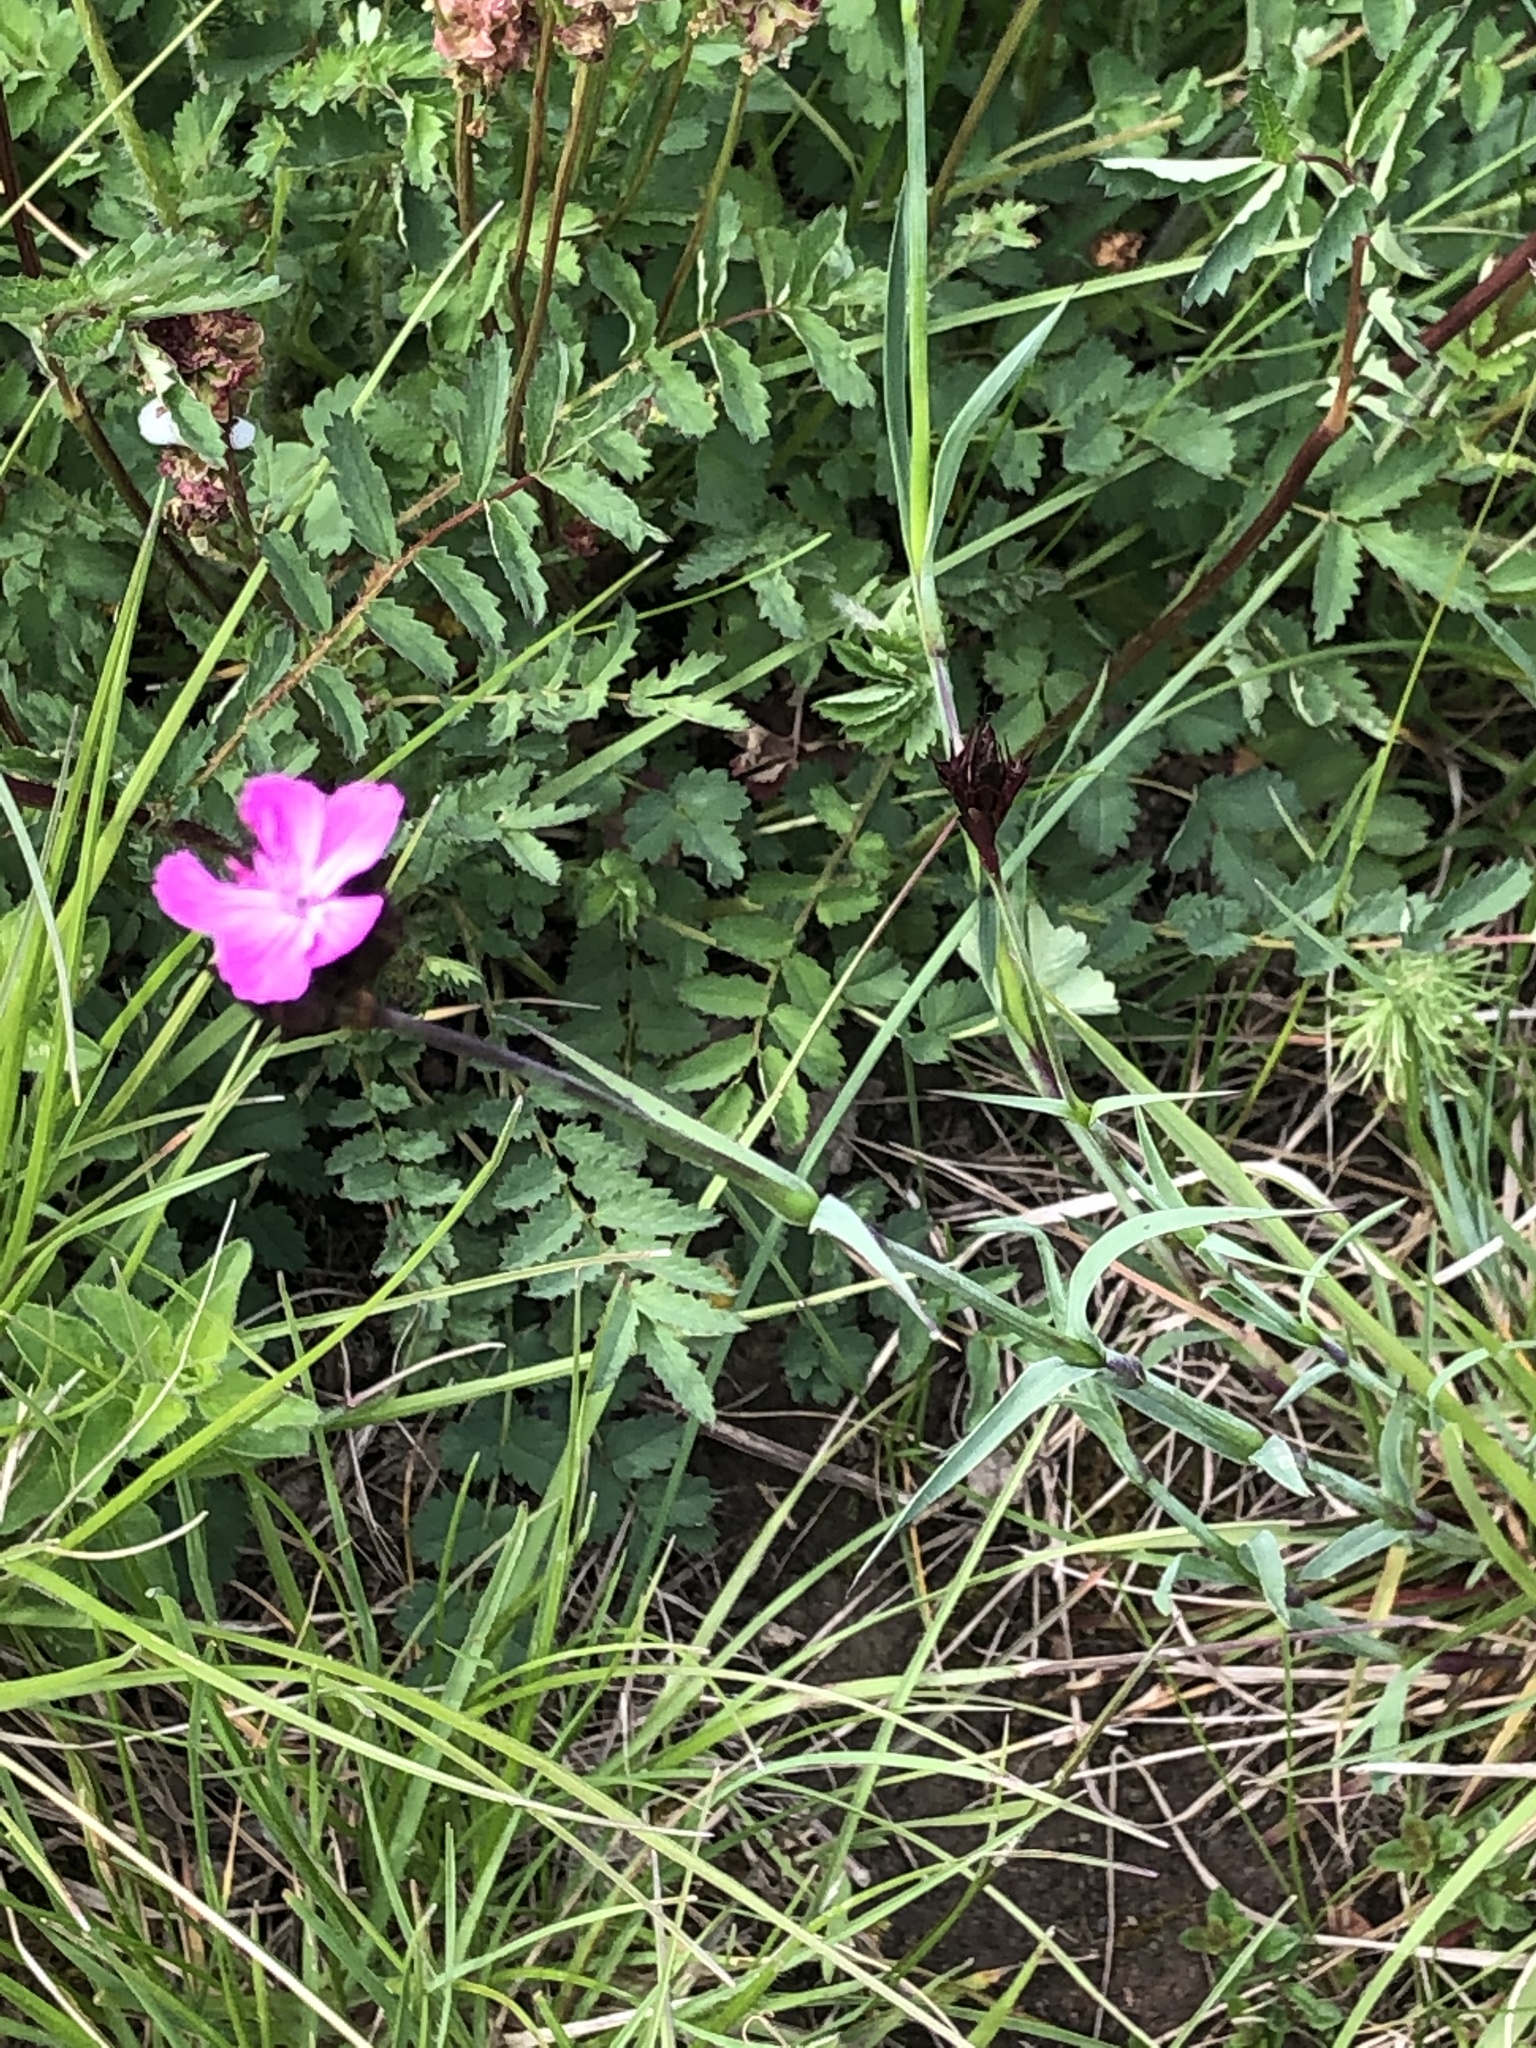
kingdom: Plantae
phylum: Tracheophyta
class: Magnoliopsida
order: Caryophyllales
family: Caryophyllaceae
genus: Dianthus
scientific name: Dianthus carthusianorum
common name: Carthusian pink
